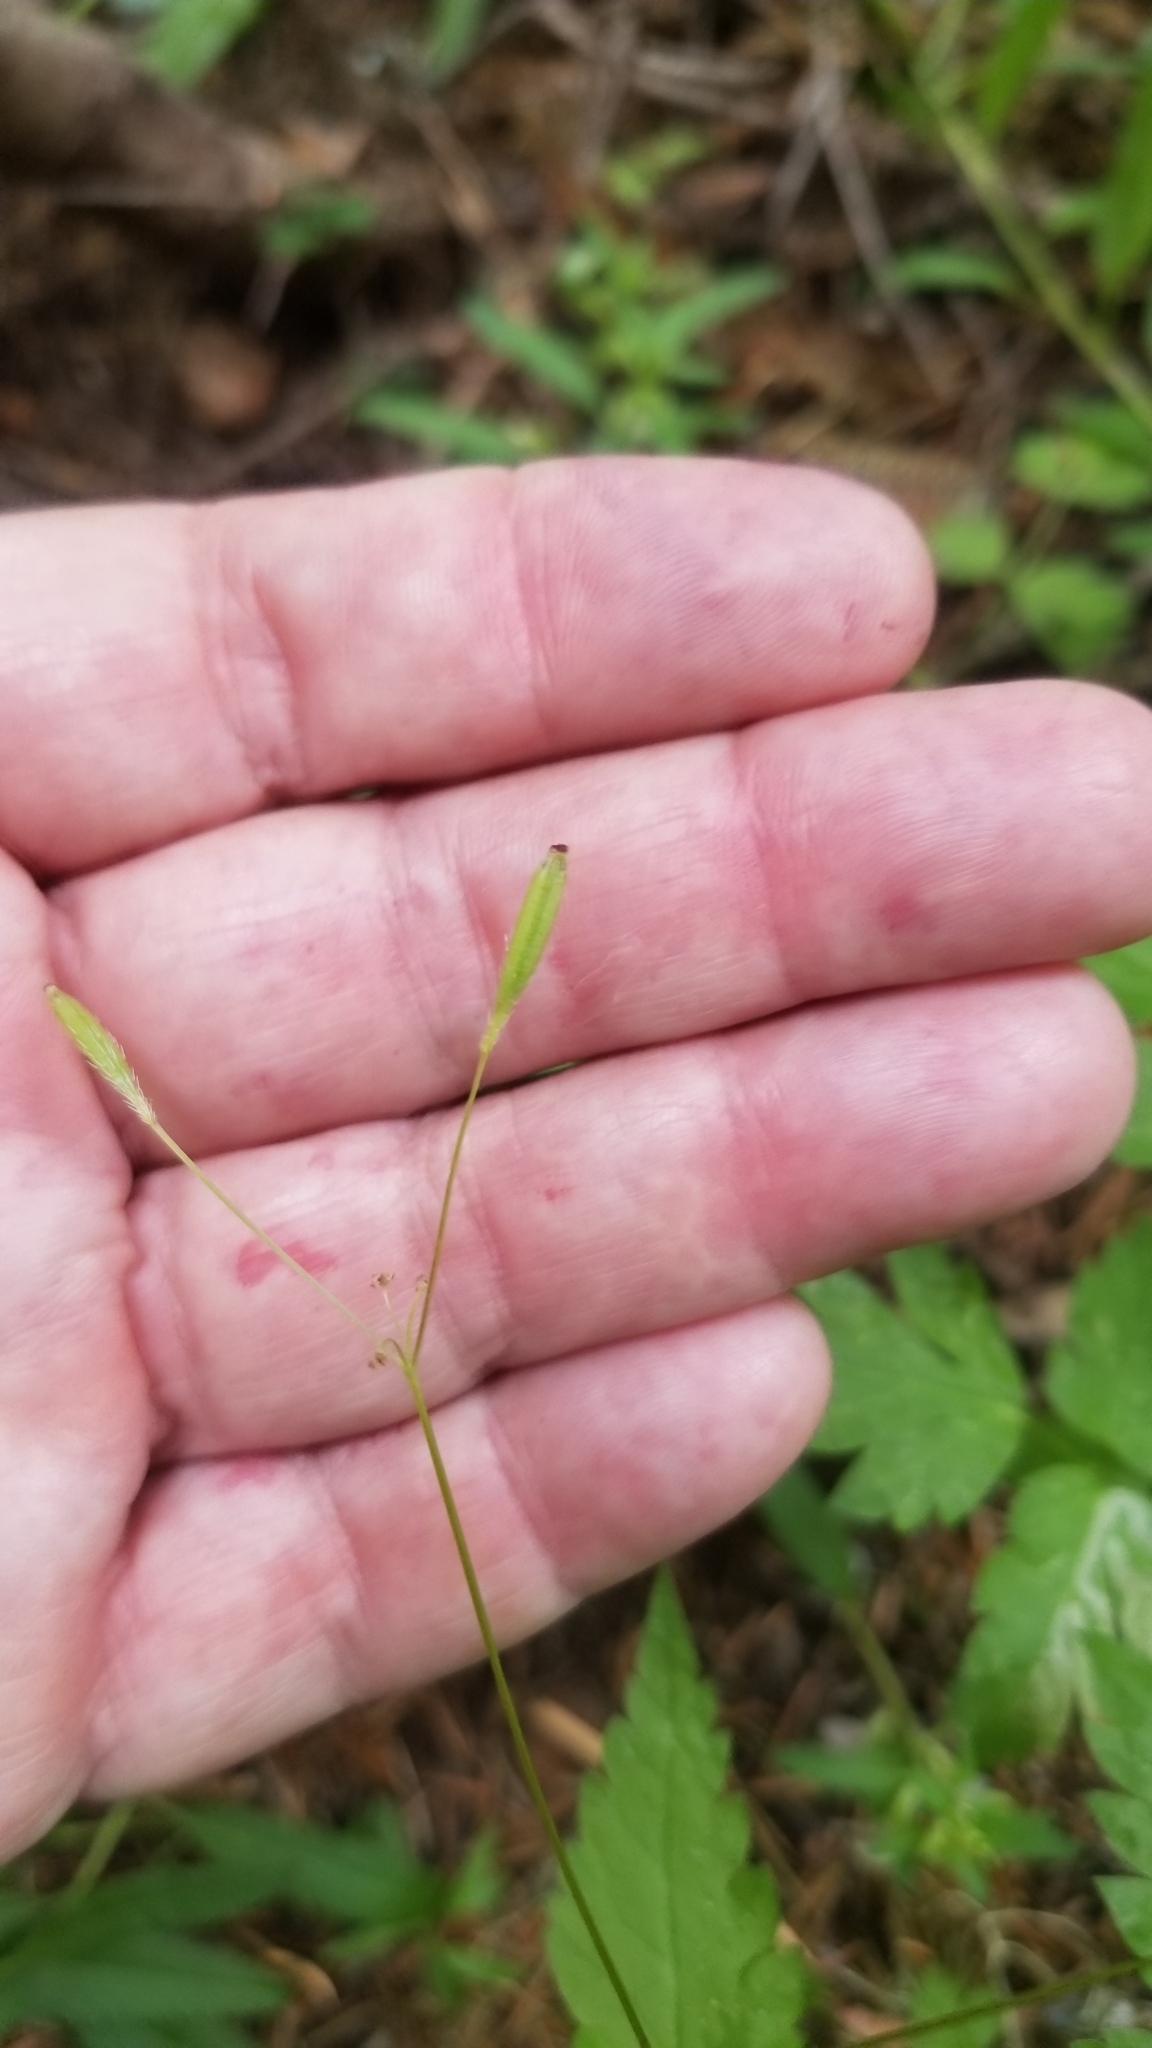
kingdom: Plantae
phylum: Tracheophyta
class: Magnoliopsida
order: Apiales
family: Apiaceae
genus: Osmorhiza
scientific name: Osmorhiza berteroi
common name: Mountain sweet cicely
